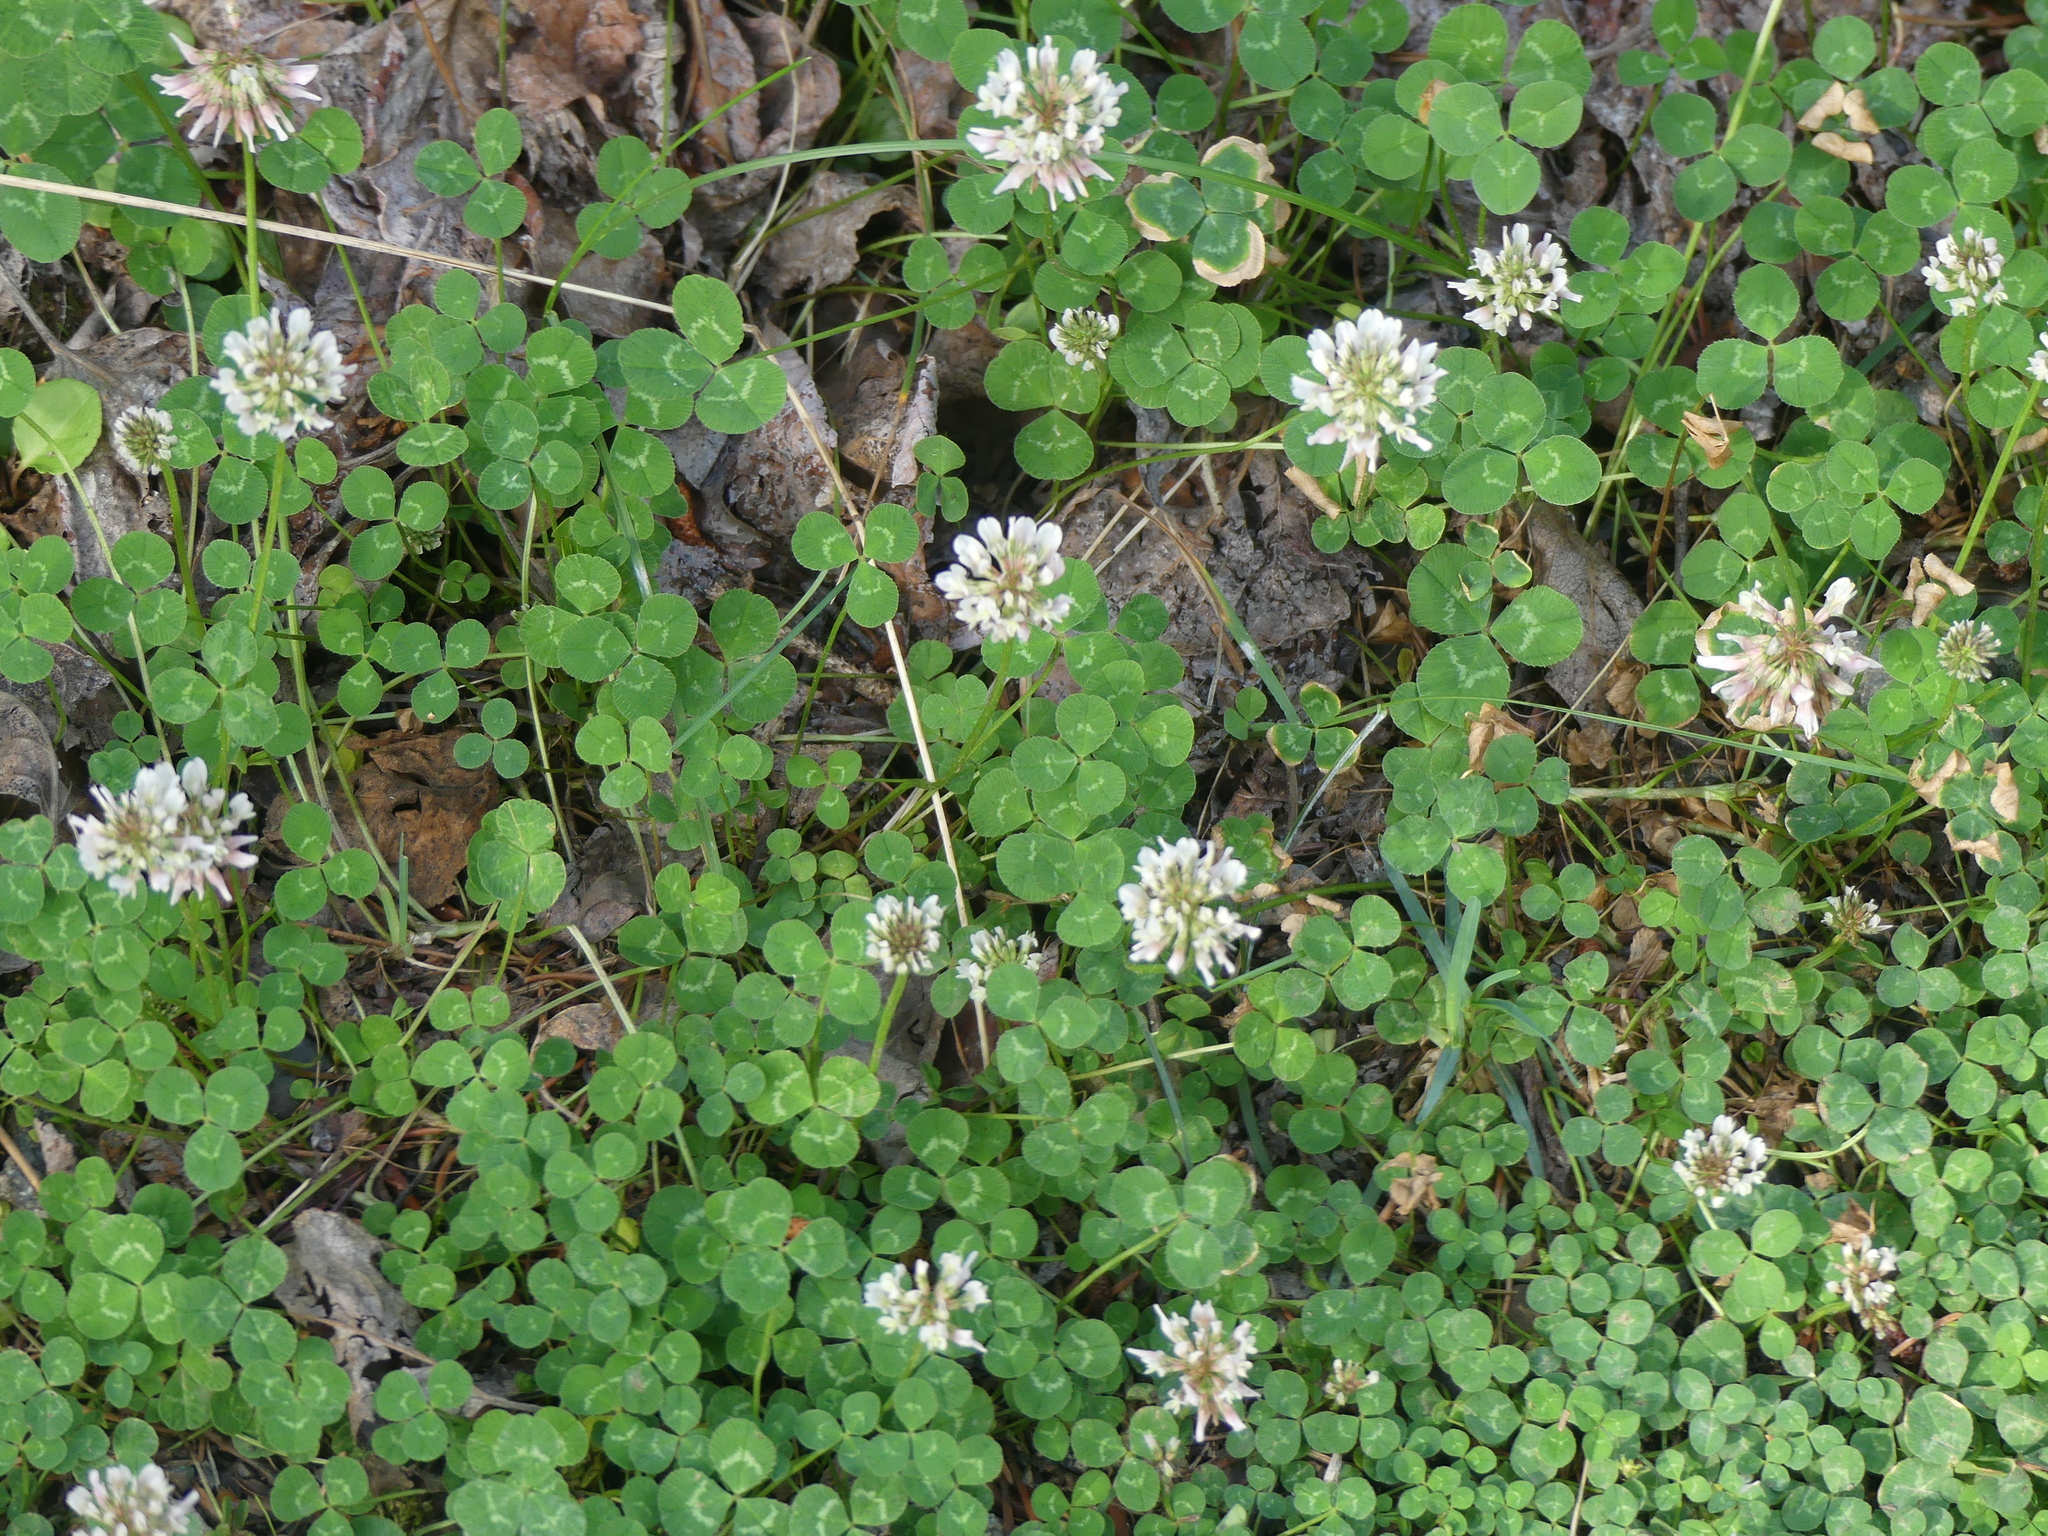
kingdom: Plantae
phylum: Tracheophyta
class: Magnoliopsida
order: Fabales
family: Fabaceae
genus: Trifolium
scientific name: Trifolium repens
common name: White clover
